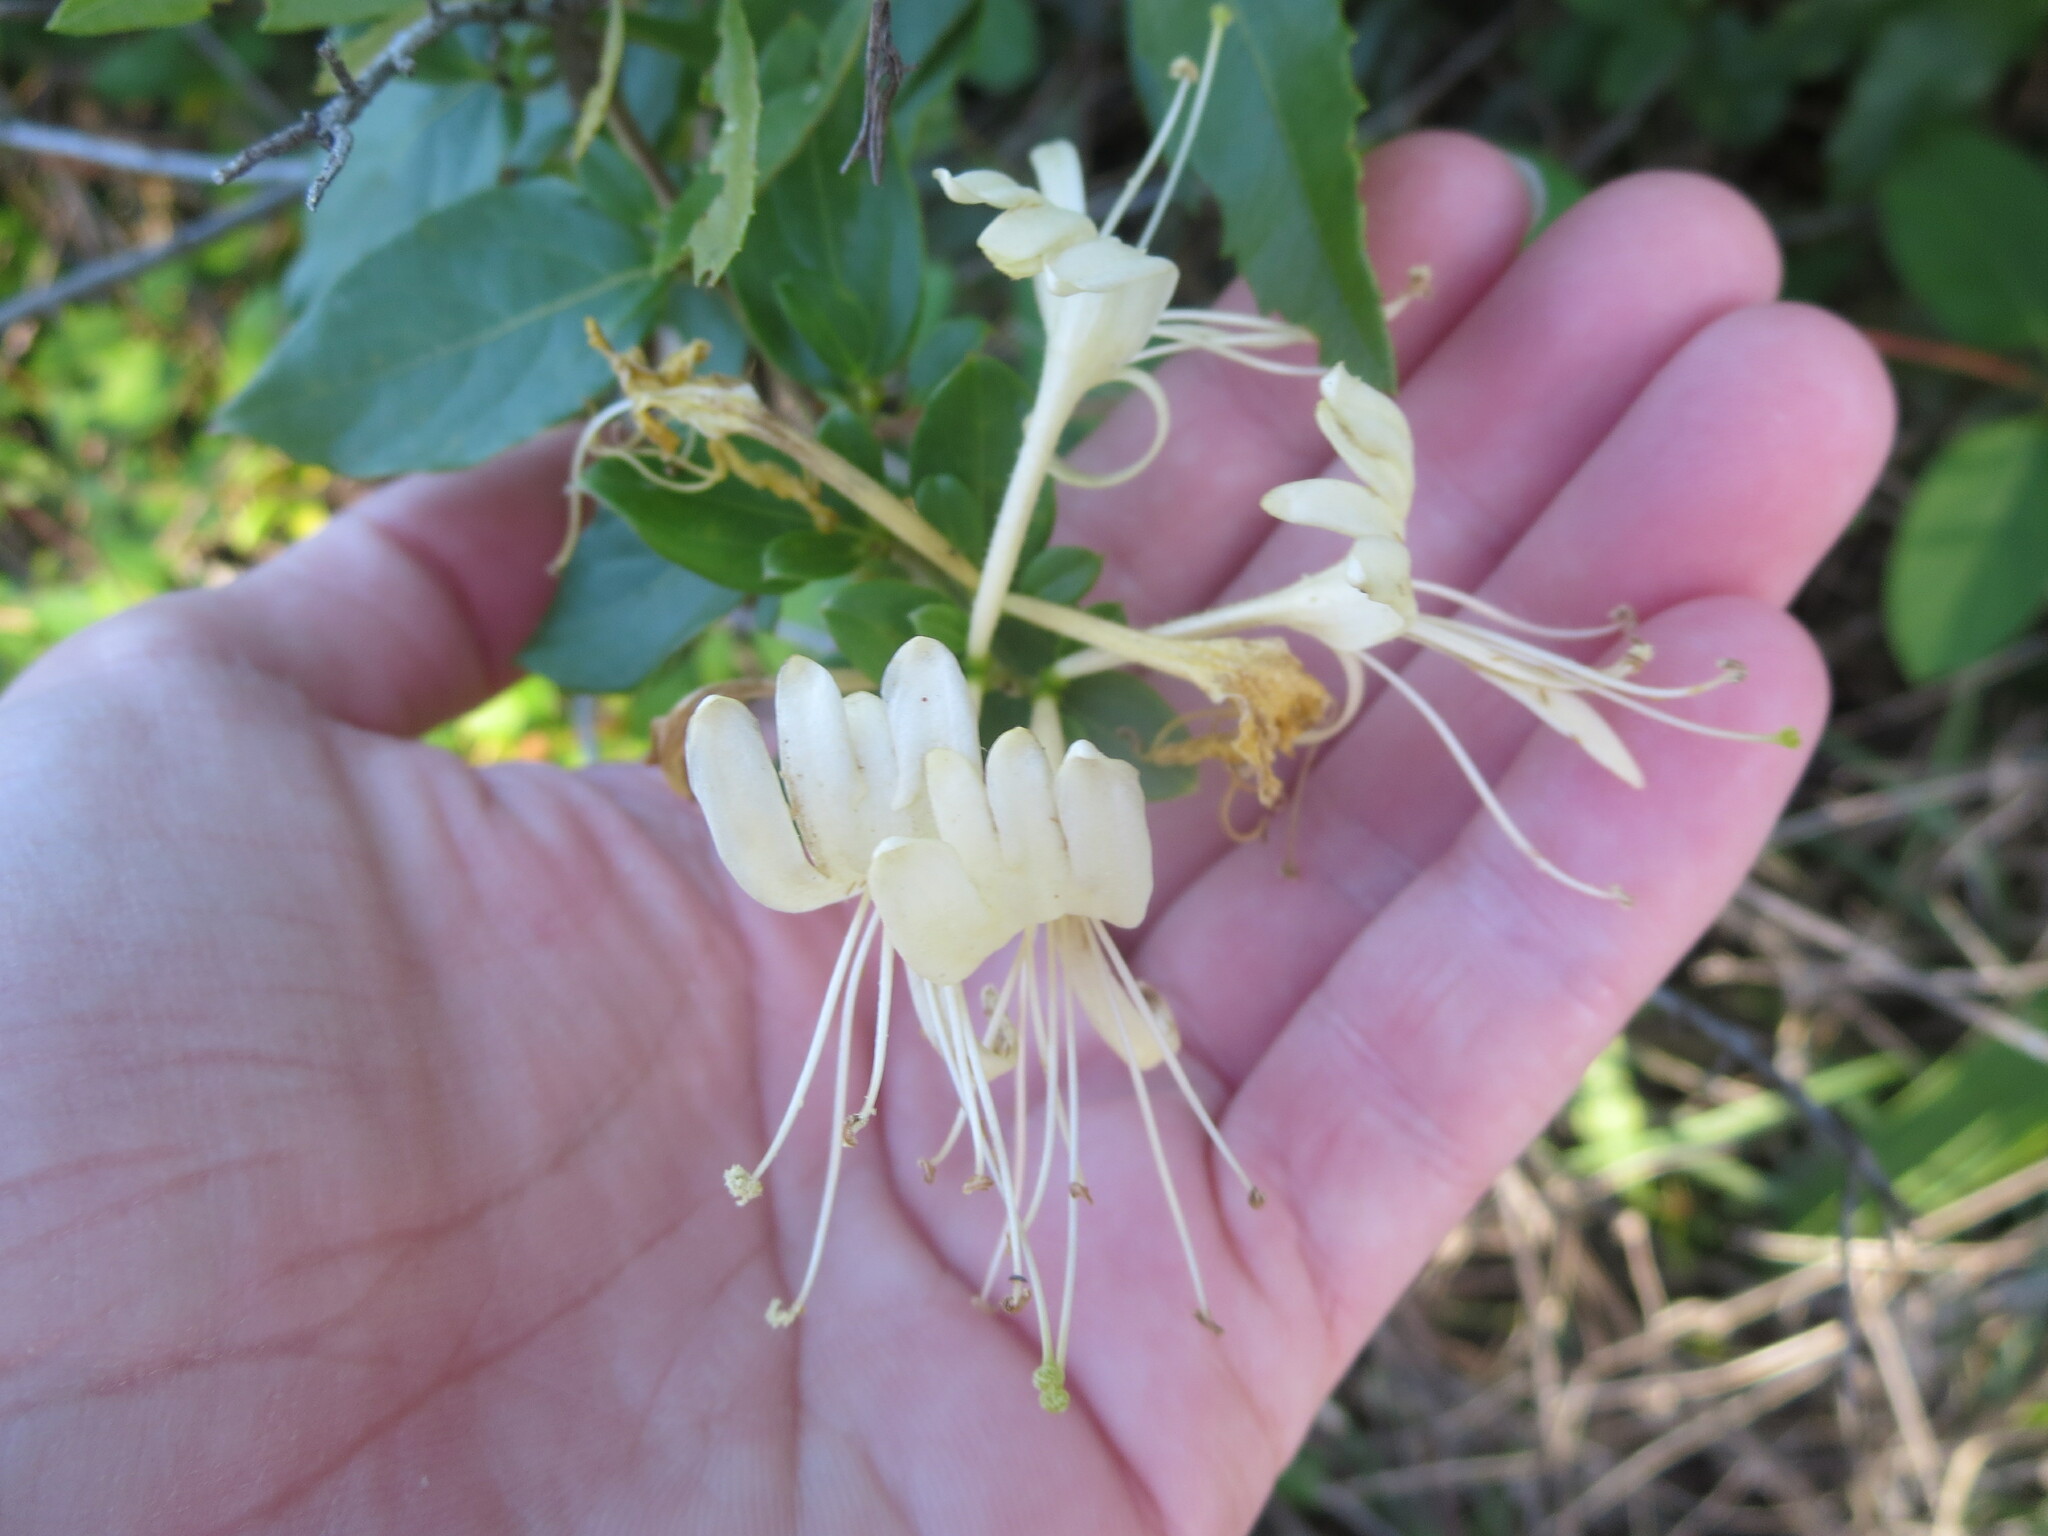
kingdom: Plantae
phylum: Tracheophyta
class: Magnoliopsida
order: Dipsacales
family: Caprifoliaceae
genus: Lonicera
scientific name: Lonicera japonica
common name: Japanese honeysuckle
